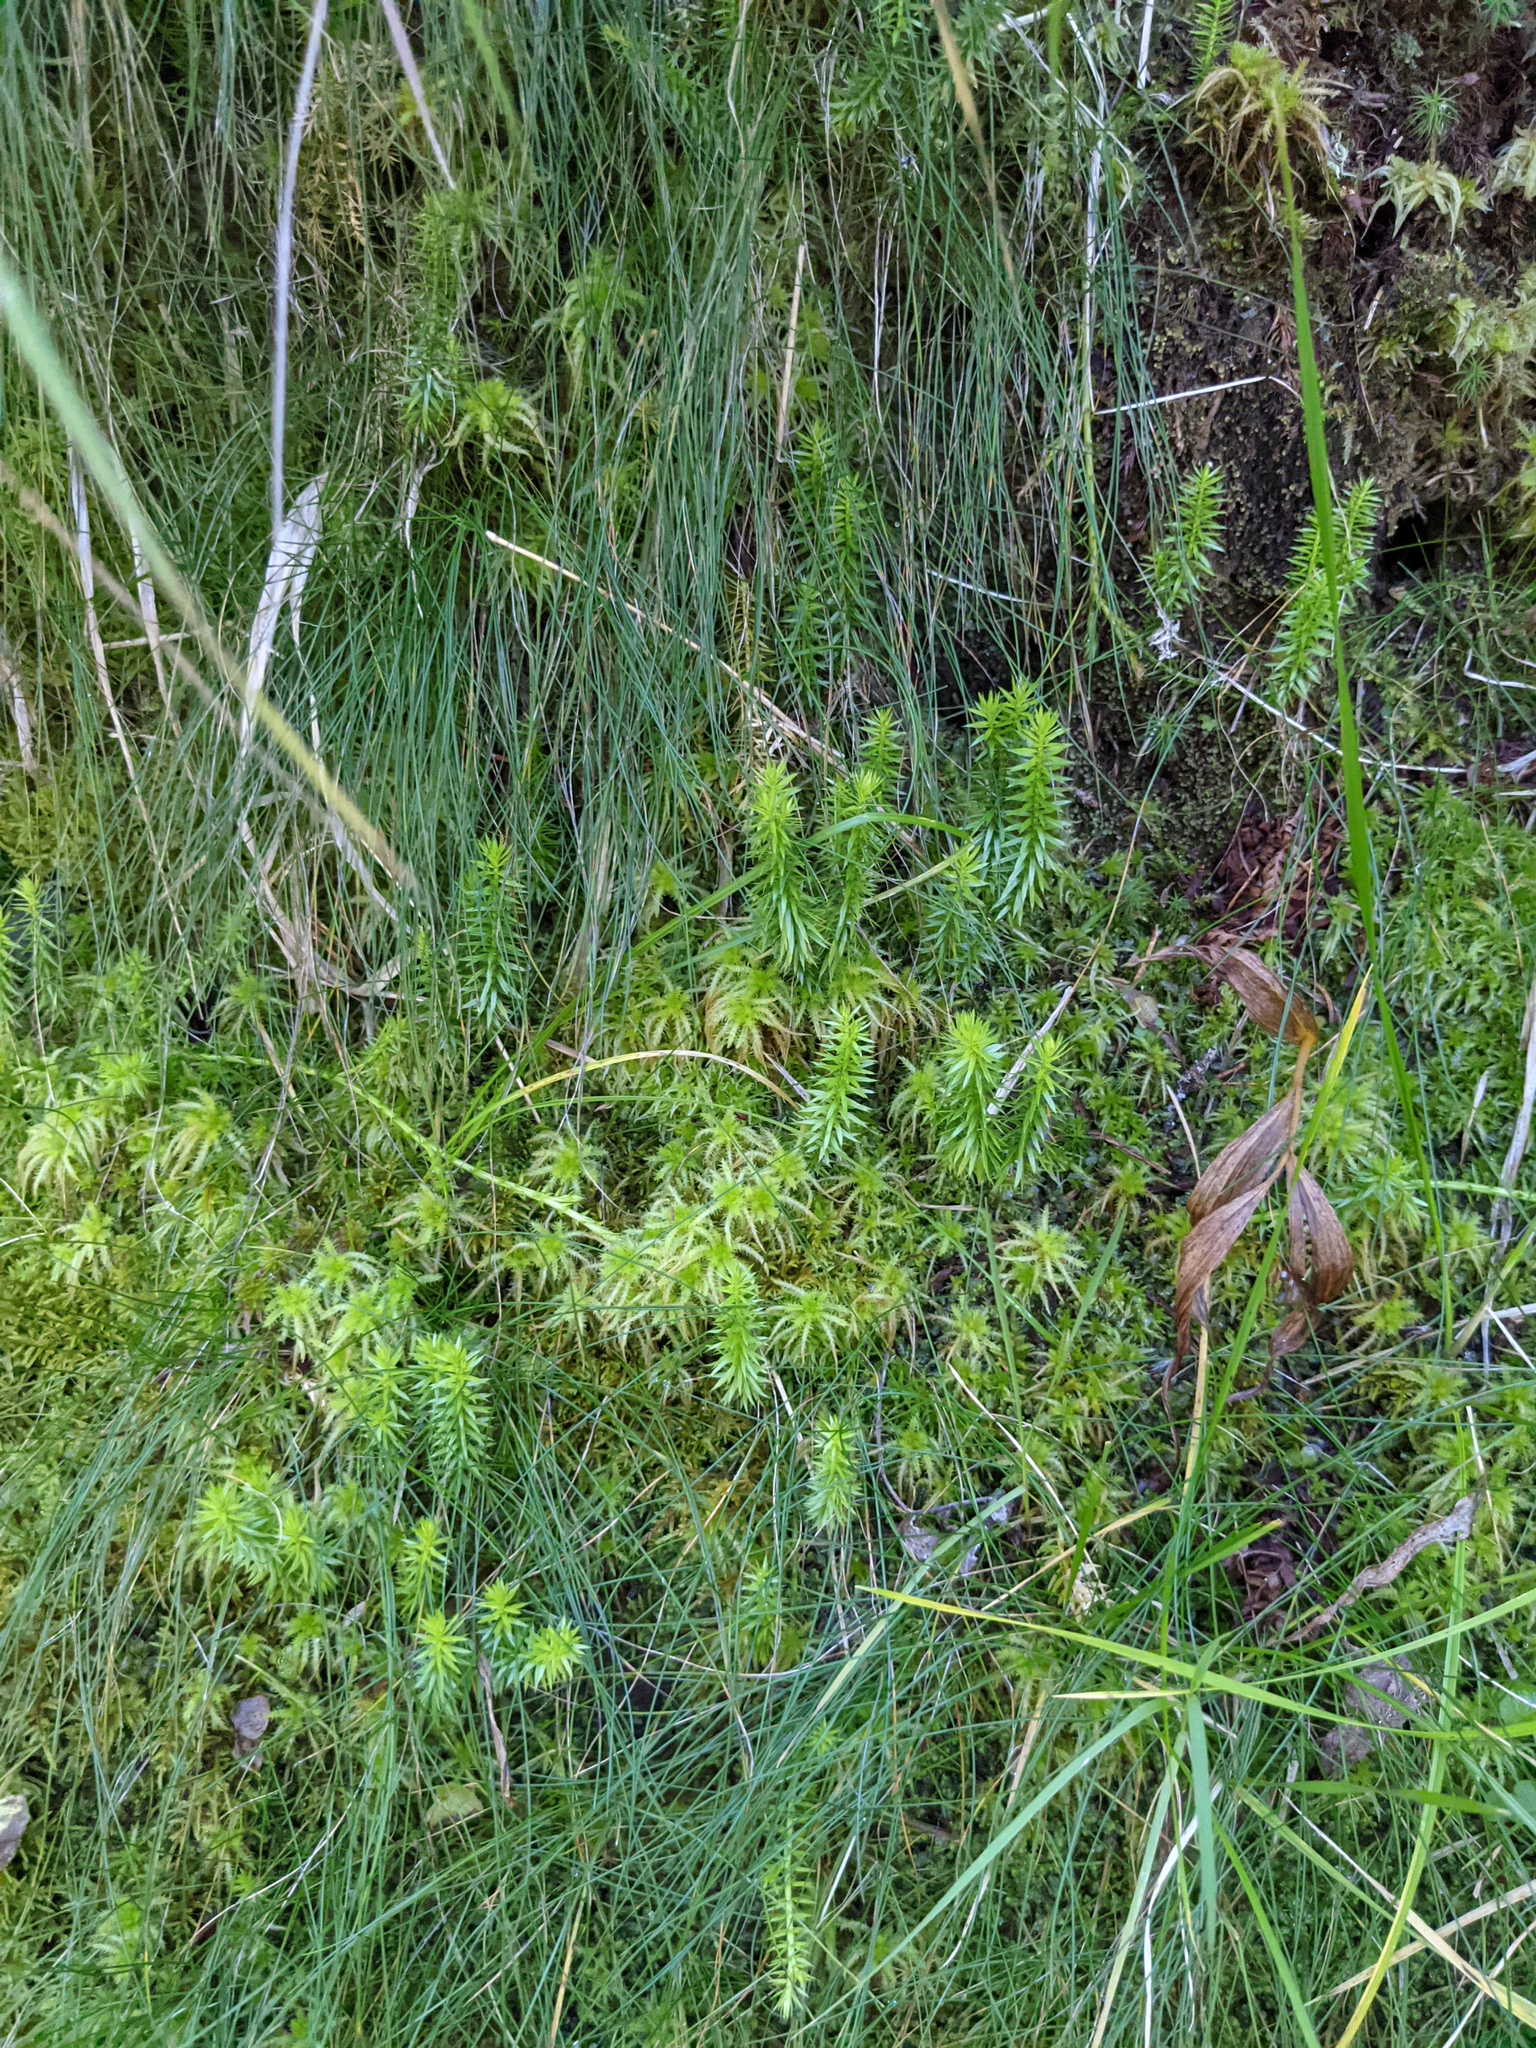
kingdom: Plantae
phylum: Tracheophyta
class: Lycopodiopsida
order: Lycopodiales
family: Lycopodiaceae
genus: Spinulum
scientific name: Spinulum annotinum
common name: Interrupted club-moss
